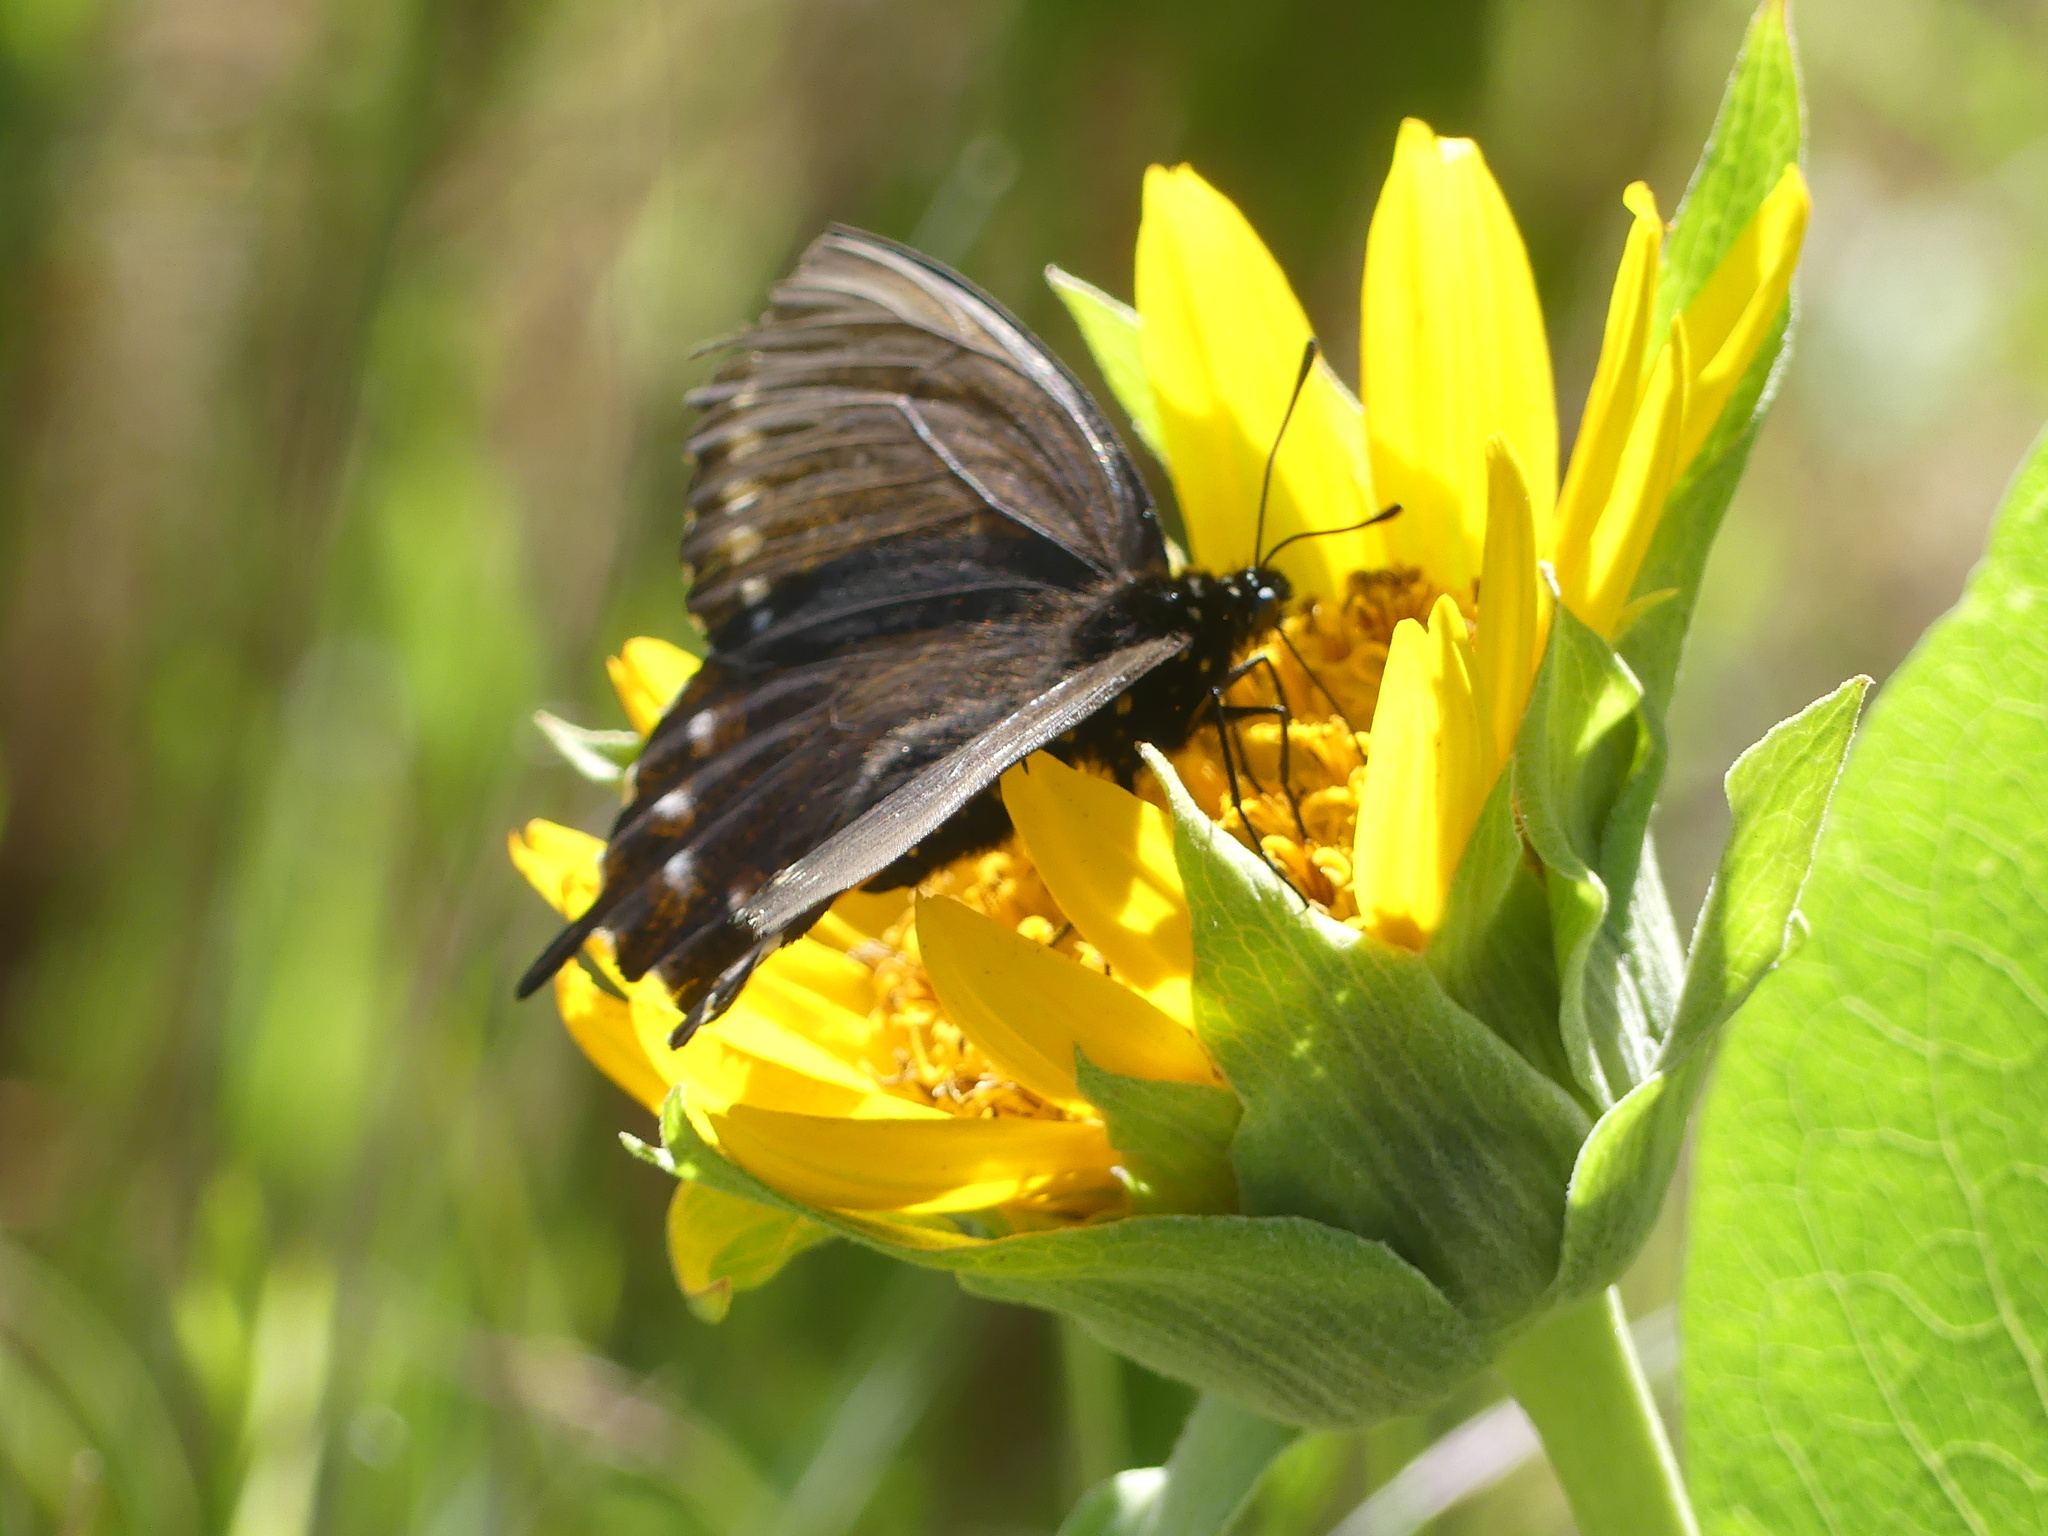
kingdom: Animalia
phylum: Arthropoda
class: Insecta
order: Lepidoptera
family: Papilionidae
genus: Battus
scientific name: Battus philenor
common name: Pipevine swallowtail
